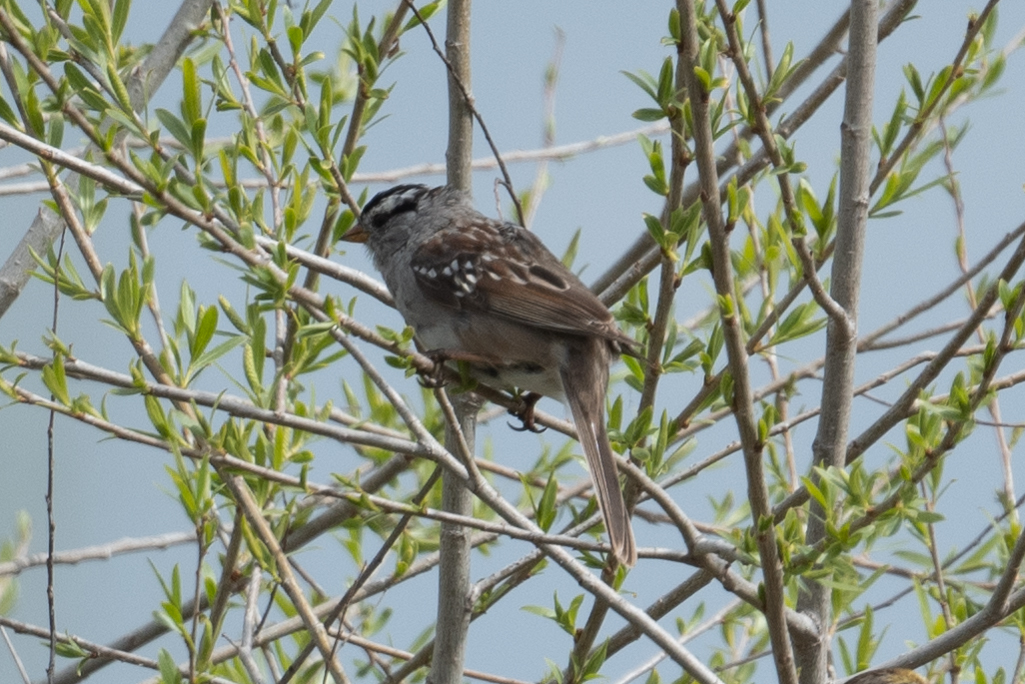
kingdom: Animalia
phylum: Chordata
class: Aves
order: Passeriformes
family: Passerellidae
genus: Zonotrichia
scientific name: Zonotrichia leucophrys
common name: White-crowned sparrow
